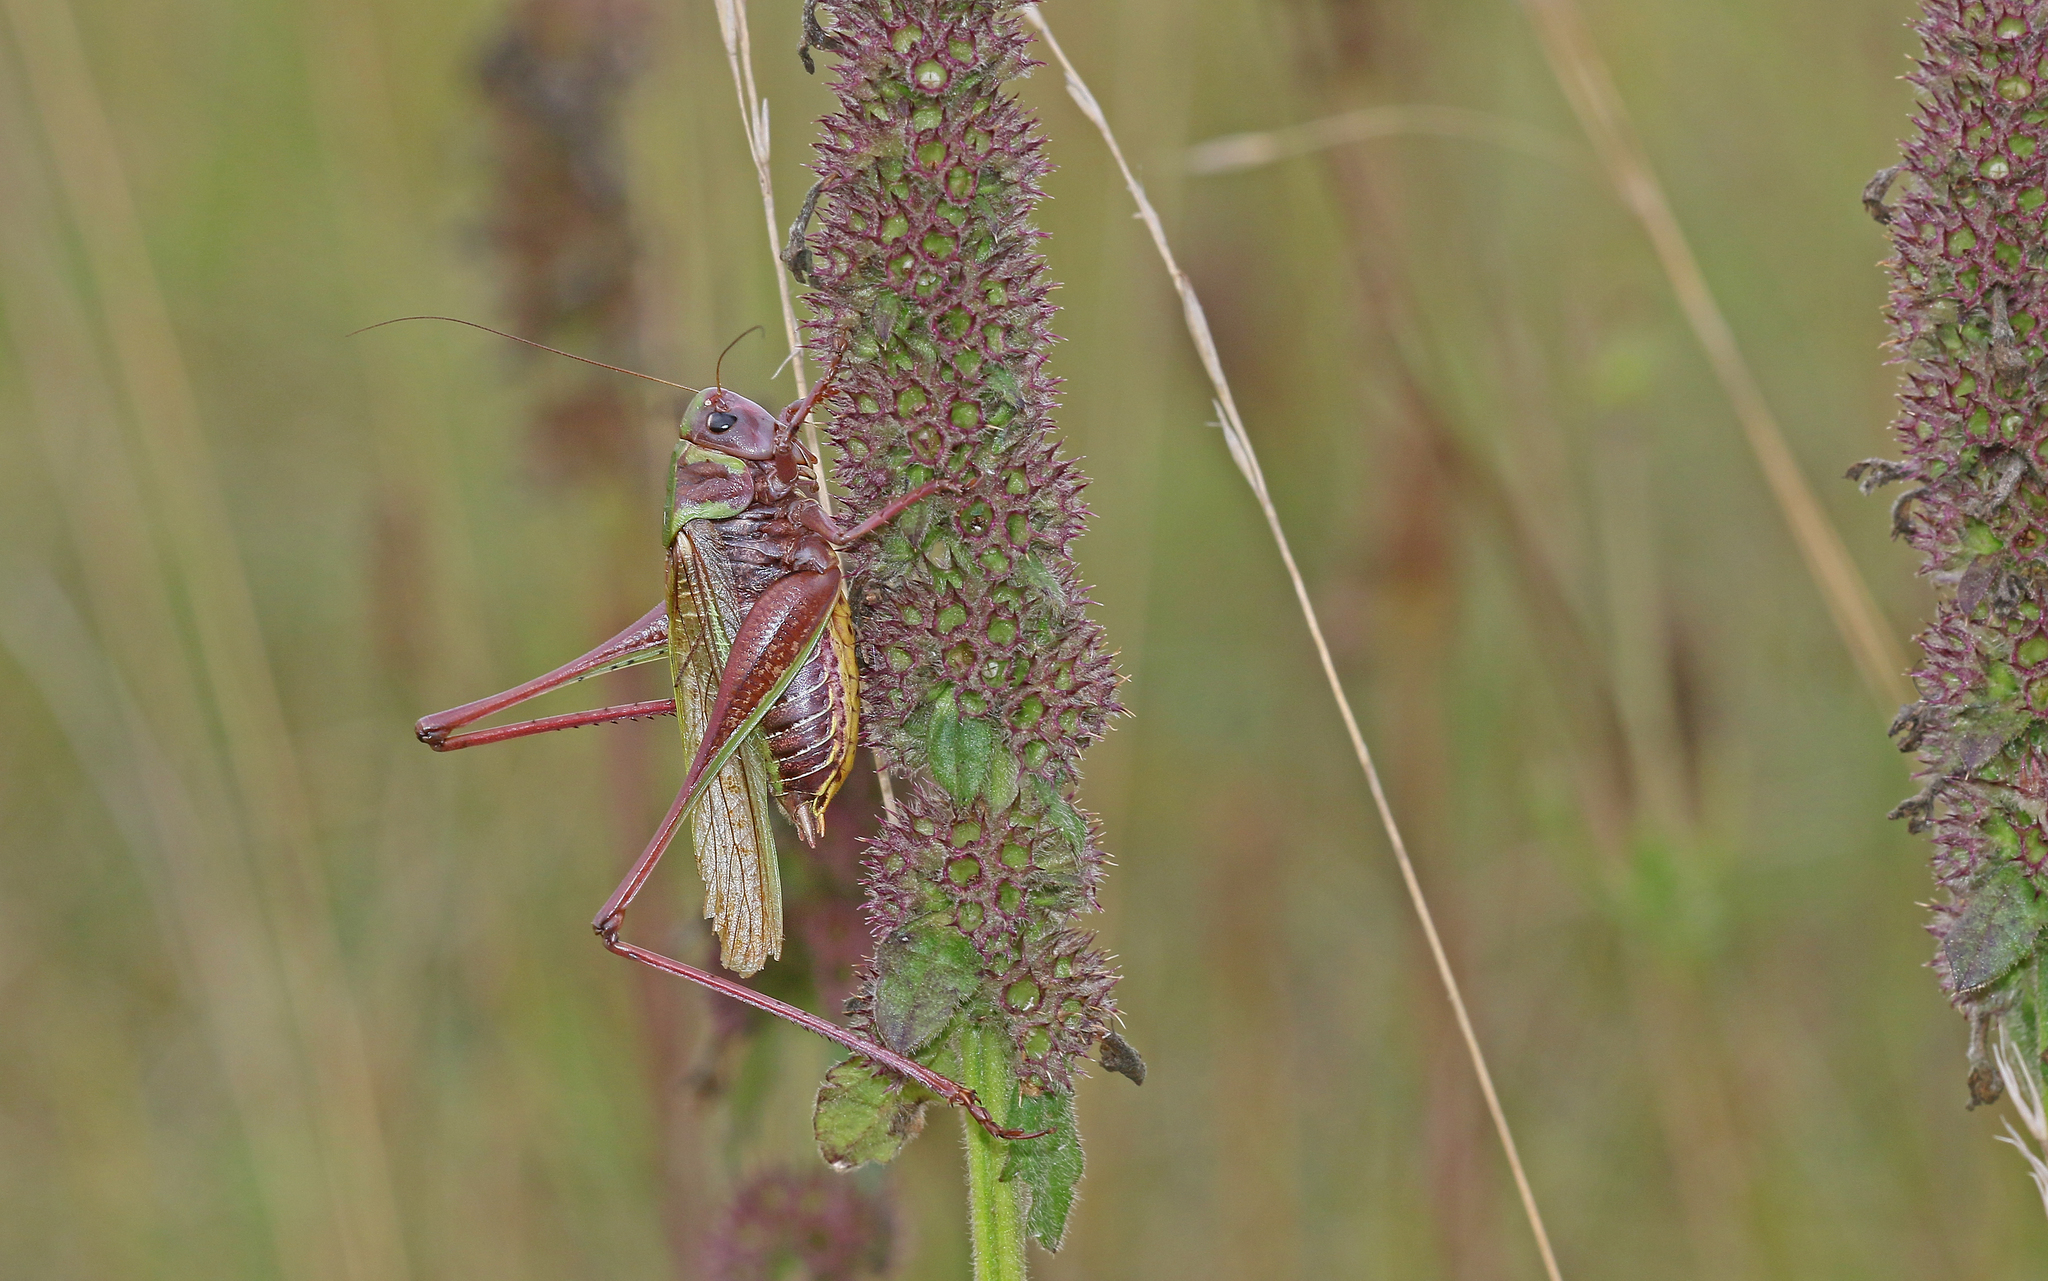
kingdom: Animalia
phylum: Arthropoda
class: Insecta
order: Orthoptera
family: Tettigoniidae
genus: Decticus
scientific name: Decticus verrucivorus
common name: Wart-biter
